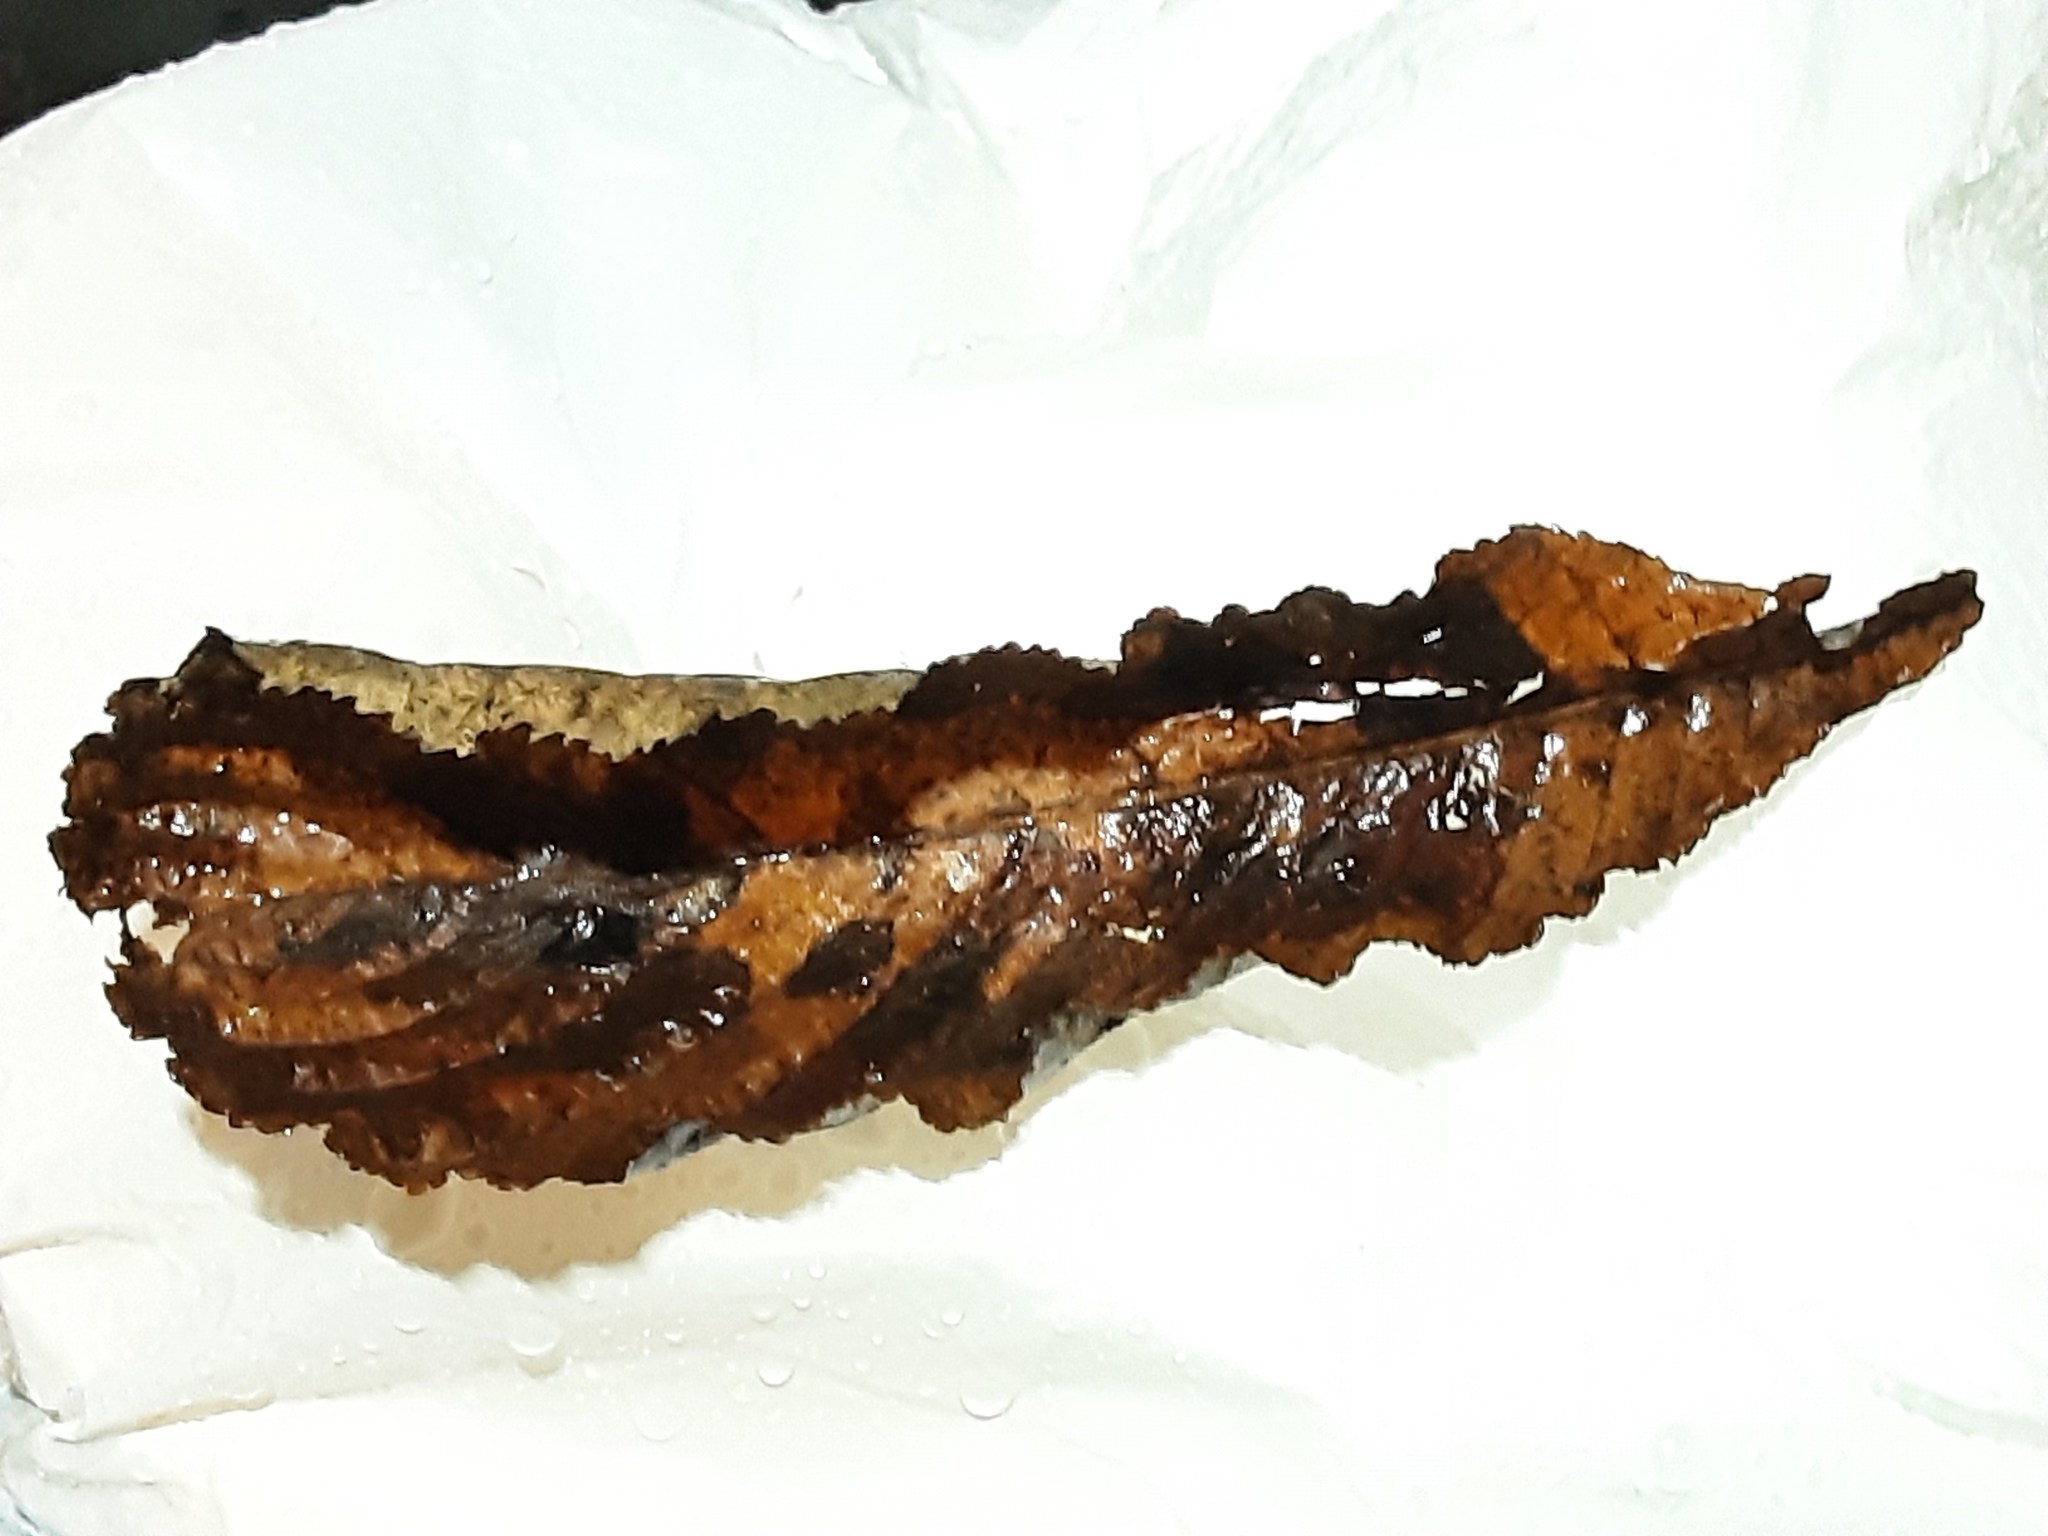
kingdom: Plantae
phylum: Tracheophyta
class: Magnoliopsida
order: Sapindales
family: Sapindaceae
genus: Aesculus
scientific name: Aesculus hippocastanum
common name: Horse-chestnut
